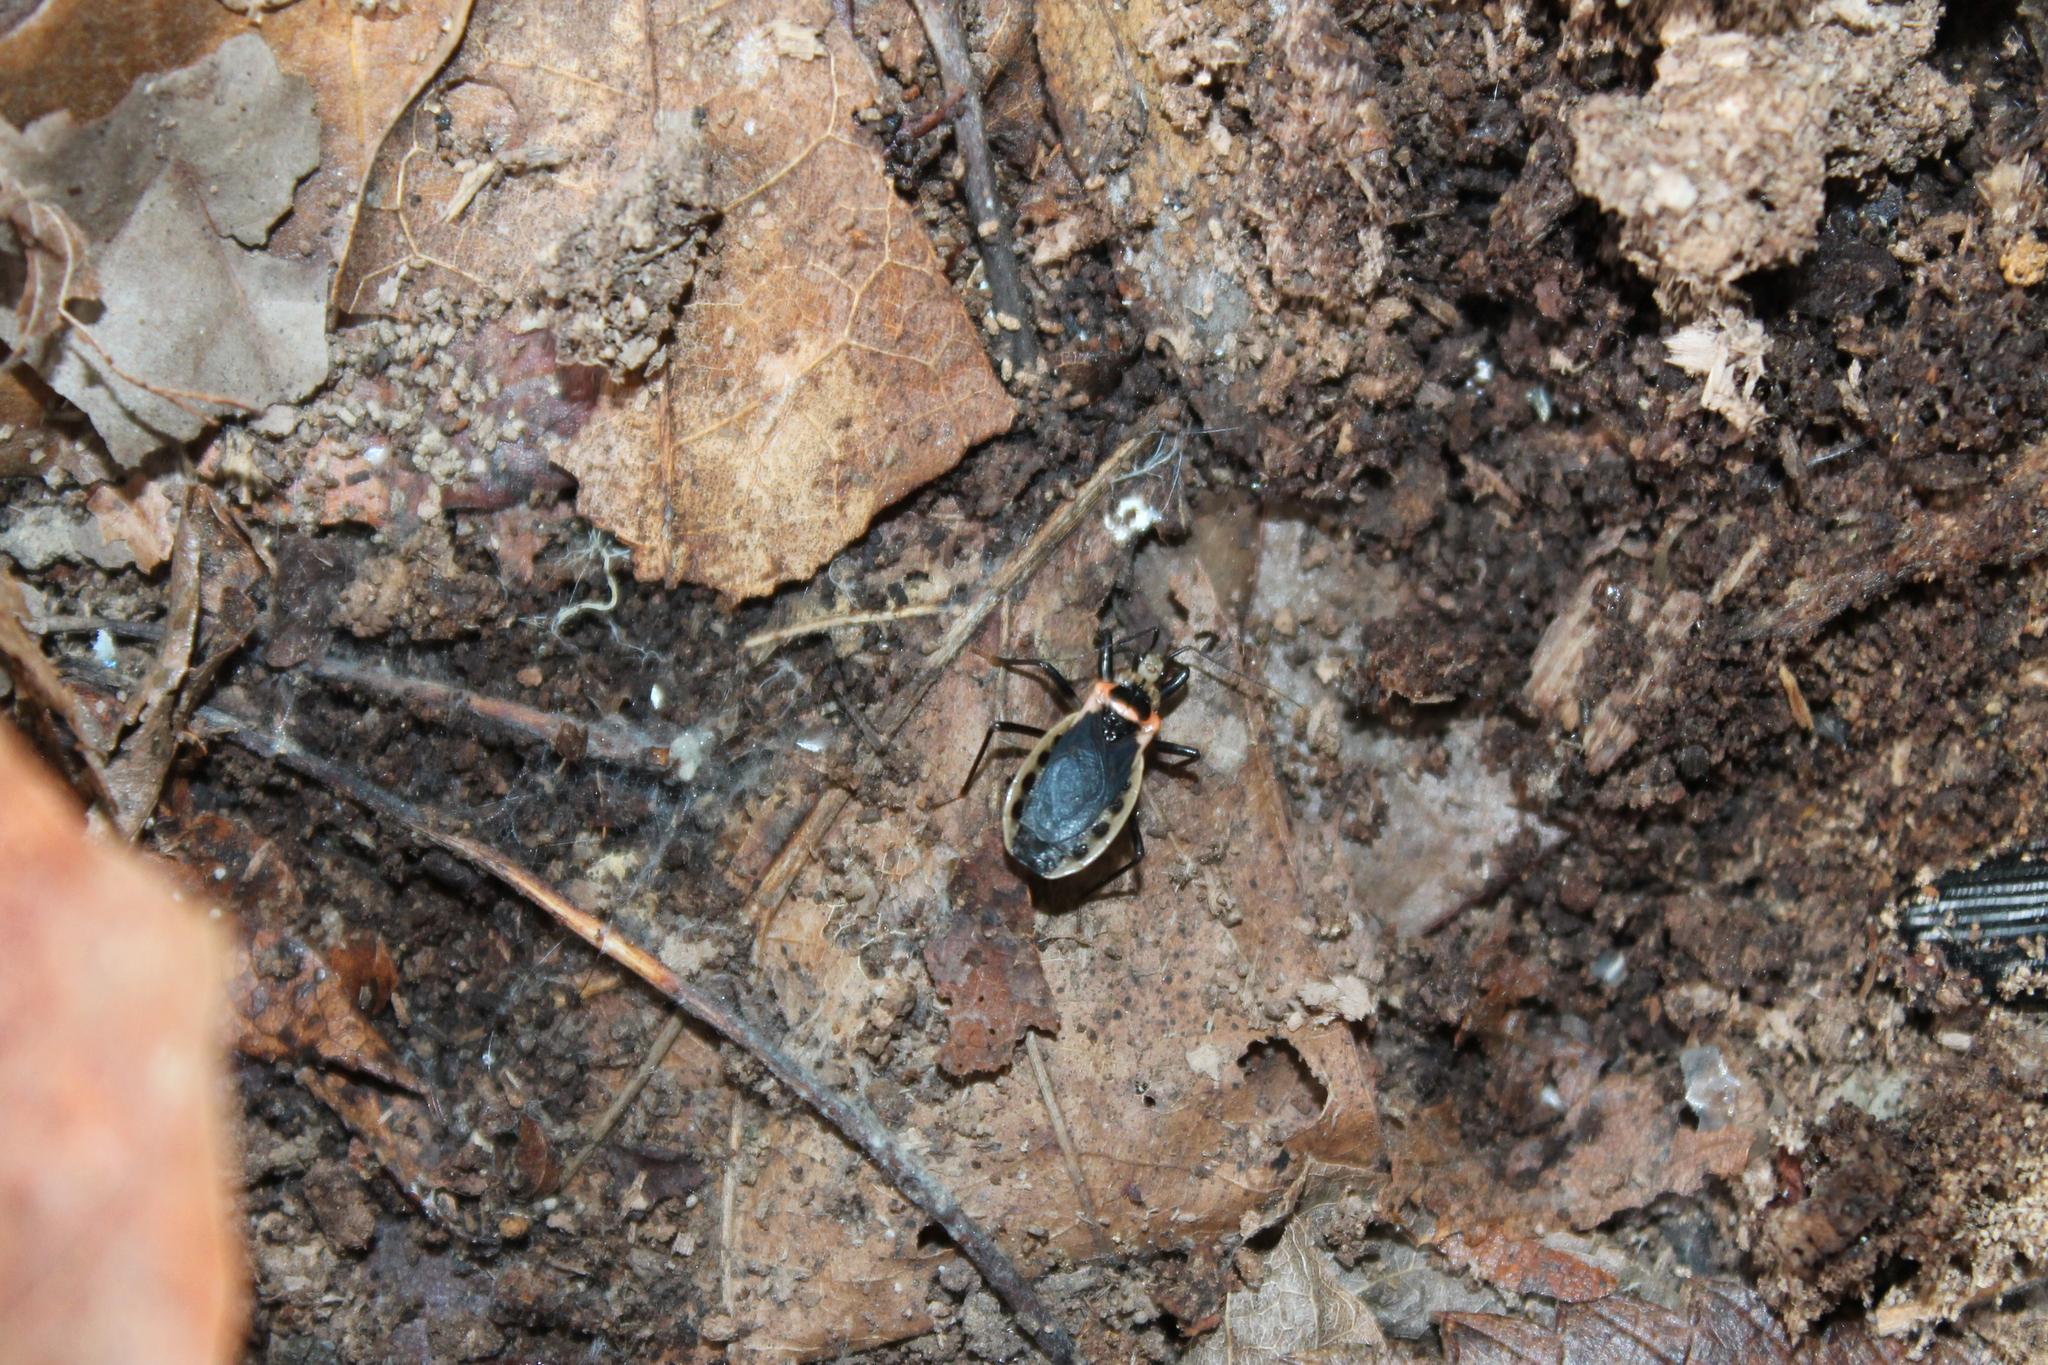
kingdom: Animalia
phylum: Arthropoda
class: Insecta
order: Hemiptera
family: Reduviidae
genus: Rhiginia
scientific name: Rhiginia cruciata
